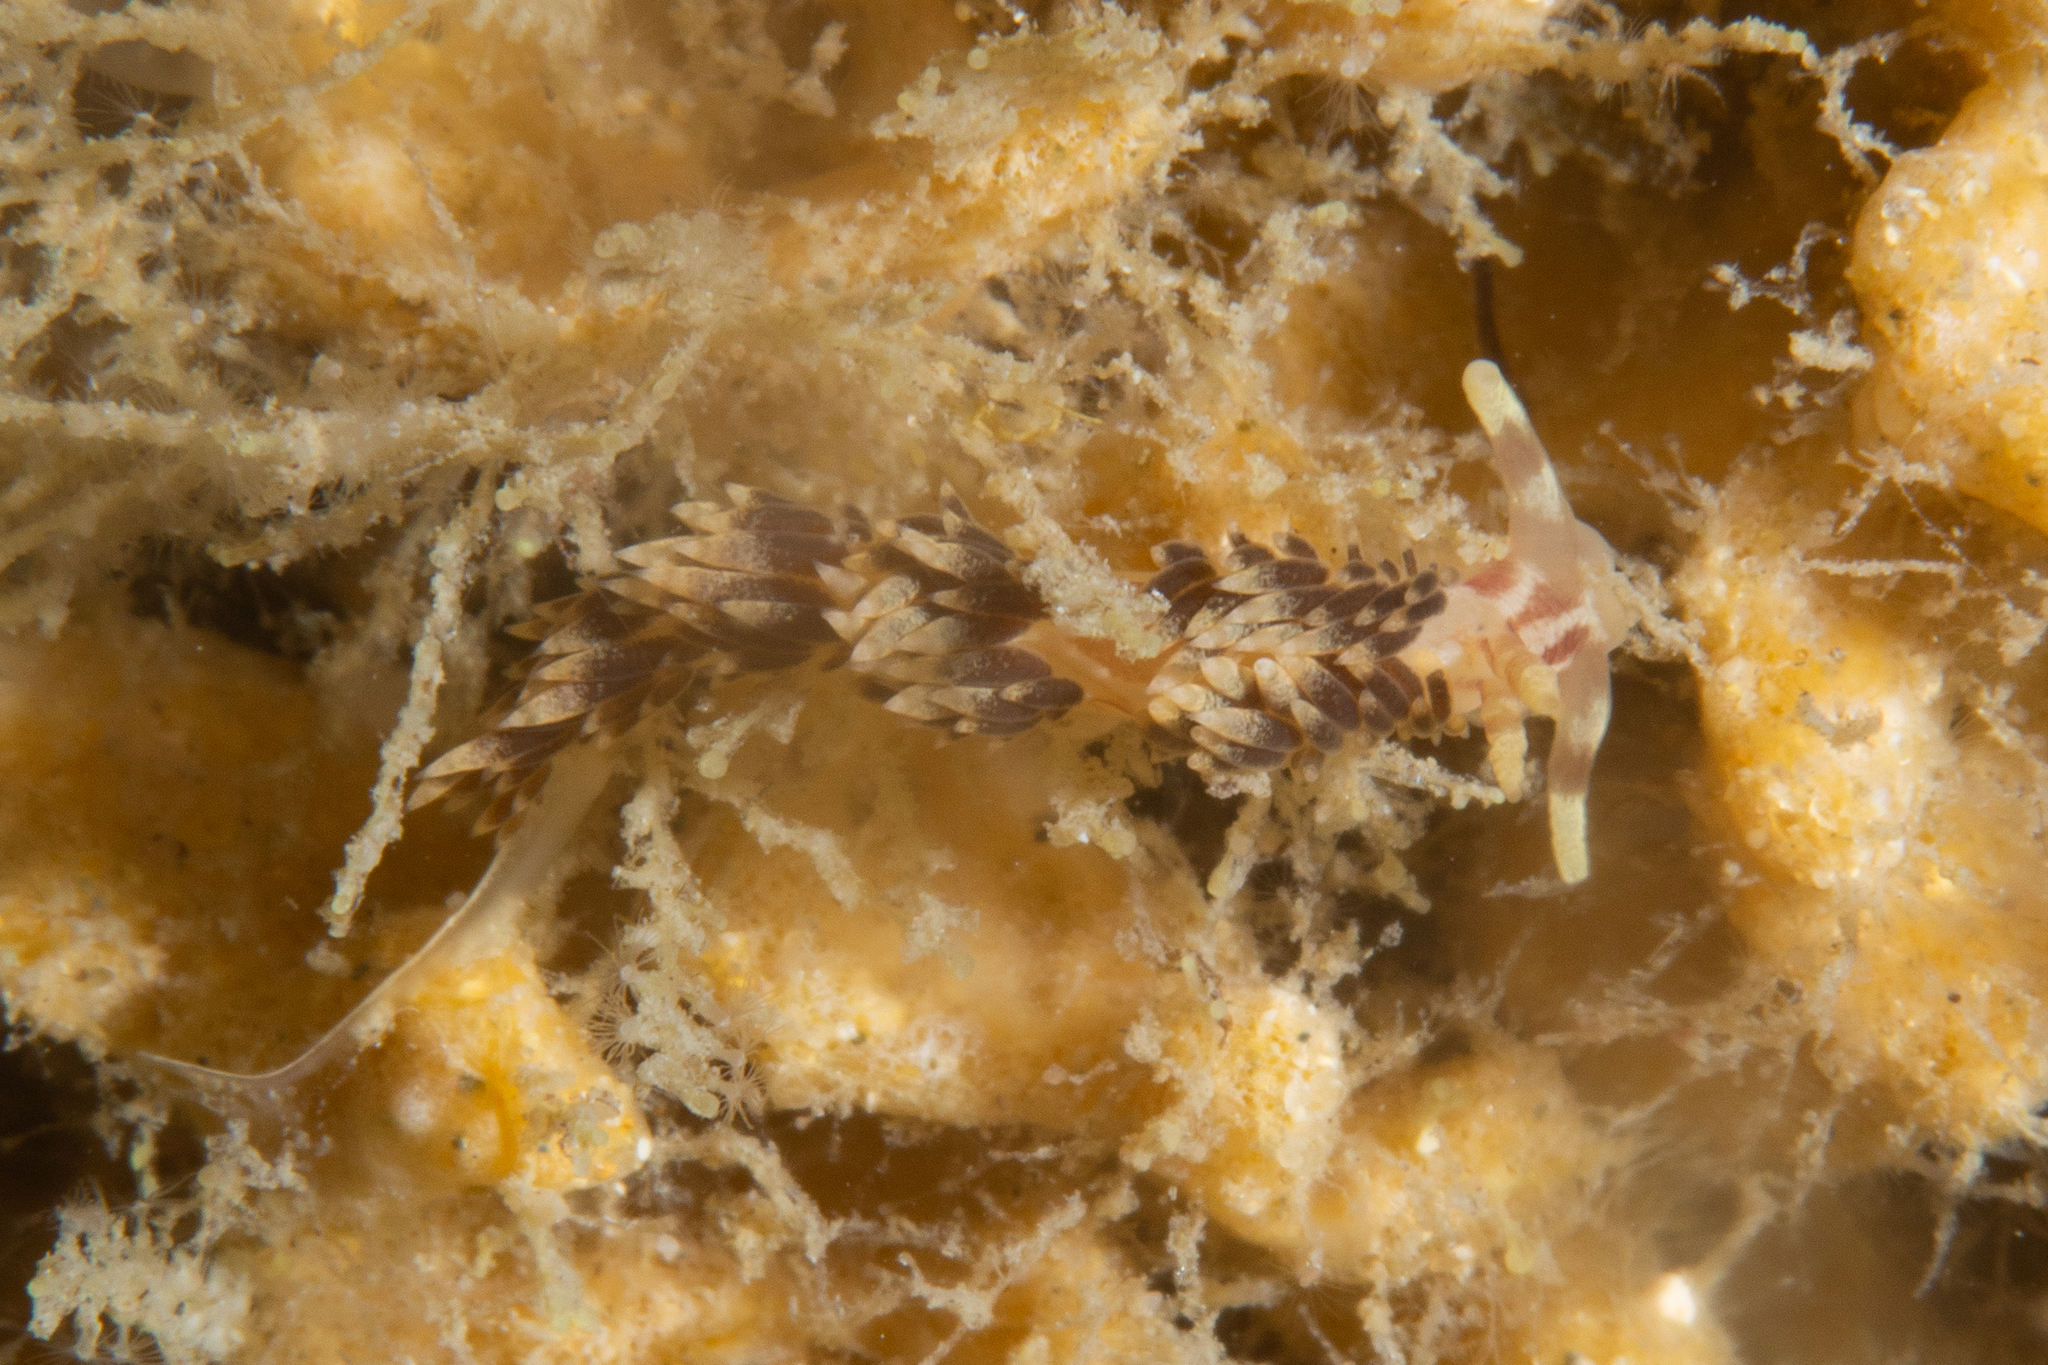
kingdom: Animalia
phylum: Mollusca
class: Gastropoda
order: Nudibranchia
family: Facelinidae
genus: Facelina
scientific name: Facelina newcombi
